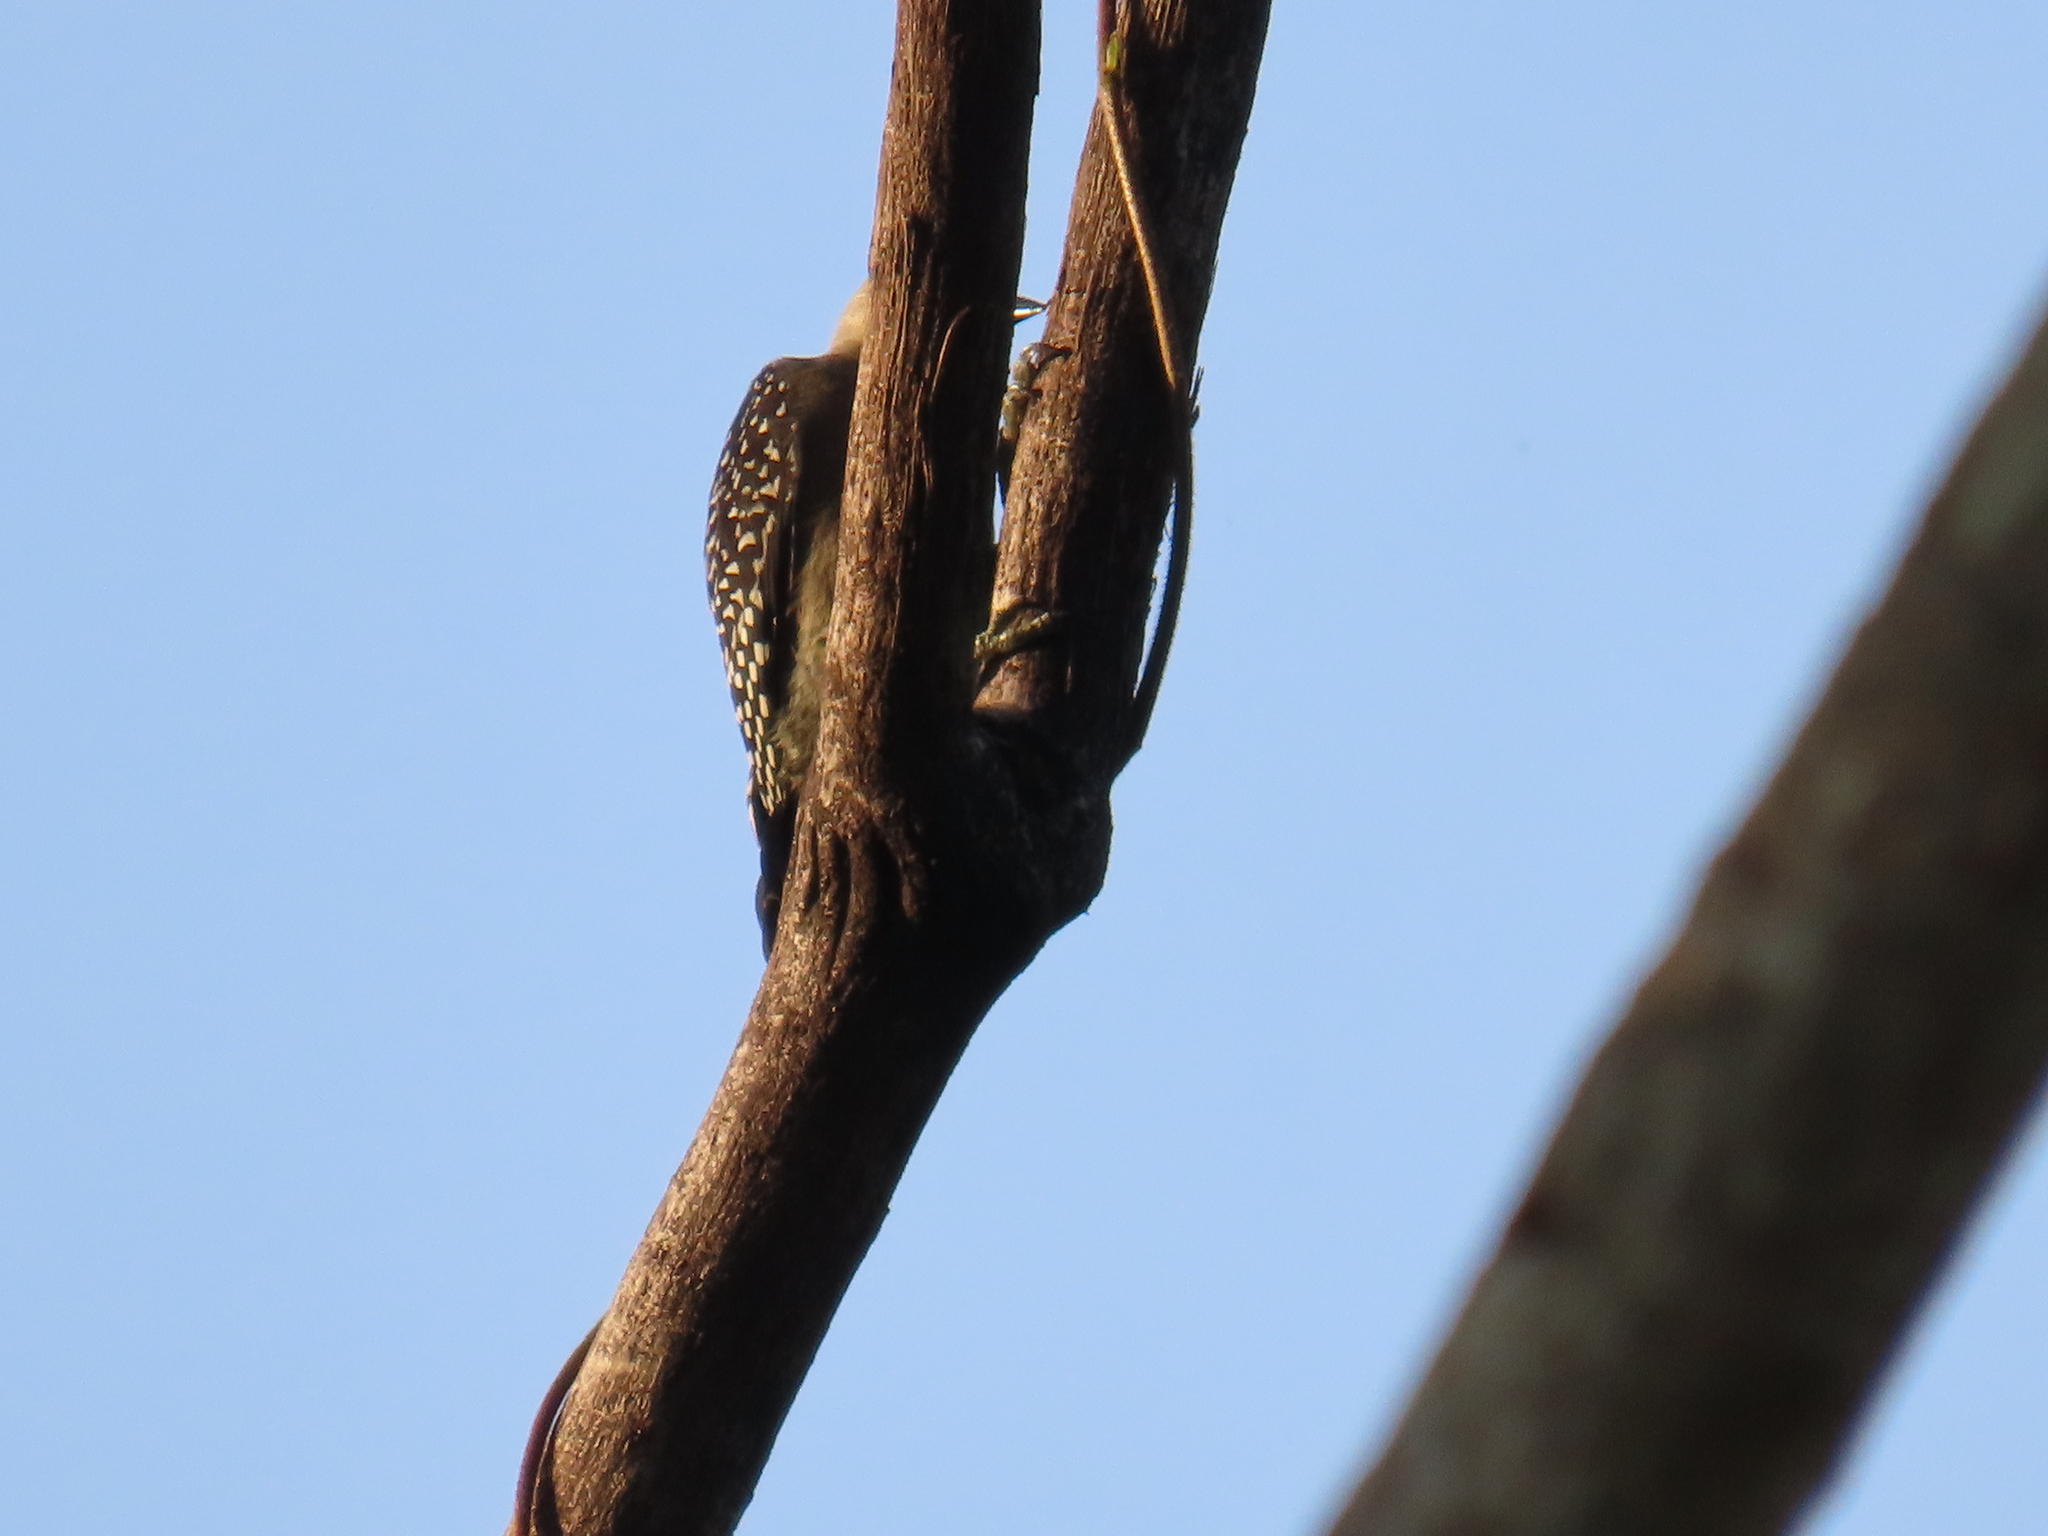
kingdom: Animalia
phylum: Chordata
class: Aves
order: Piciformes
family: Picidae
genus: Melanerpes
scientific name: Melanerpes rubricapillus
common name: Red-crowned woodpecker
